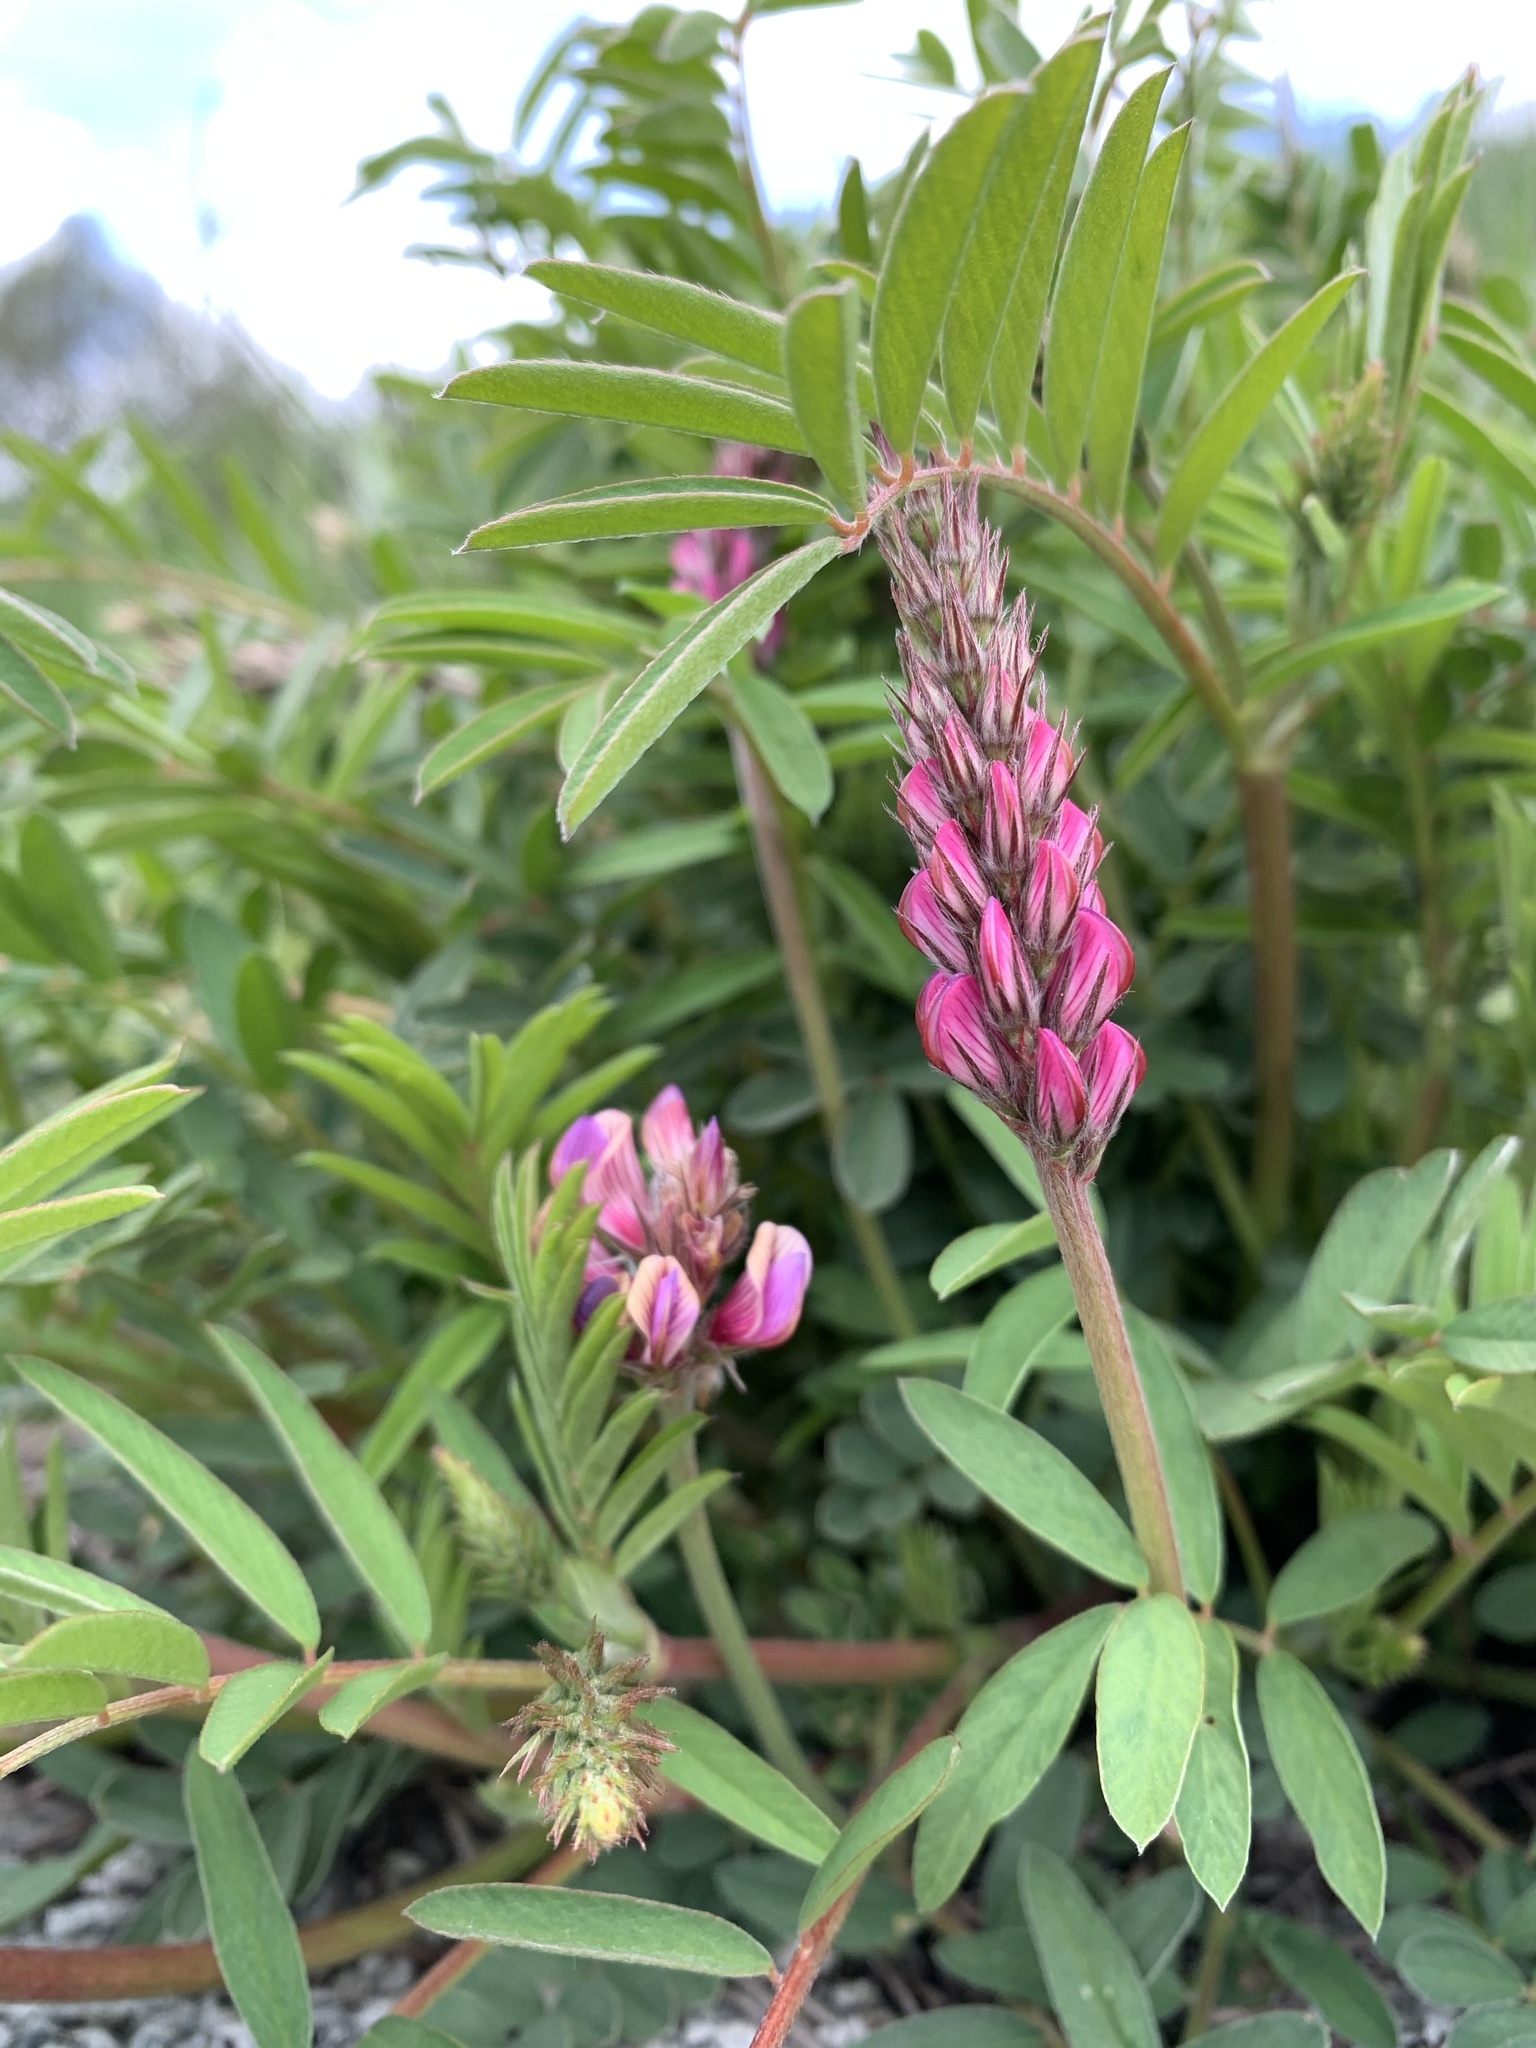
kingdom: Plantae
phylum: Tracheophyta
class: Magnoliopsida
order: Fabales
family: Fabaceae
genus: Onobrychis
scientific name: Onobrychis viciifolia
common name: Sainfoin
